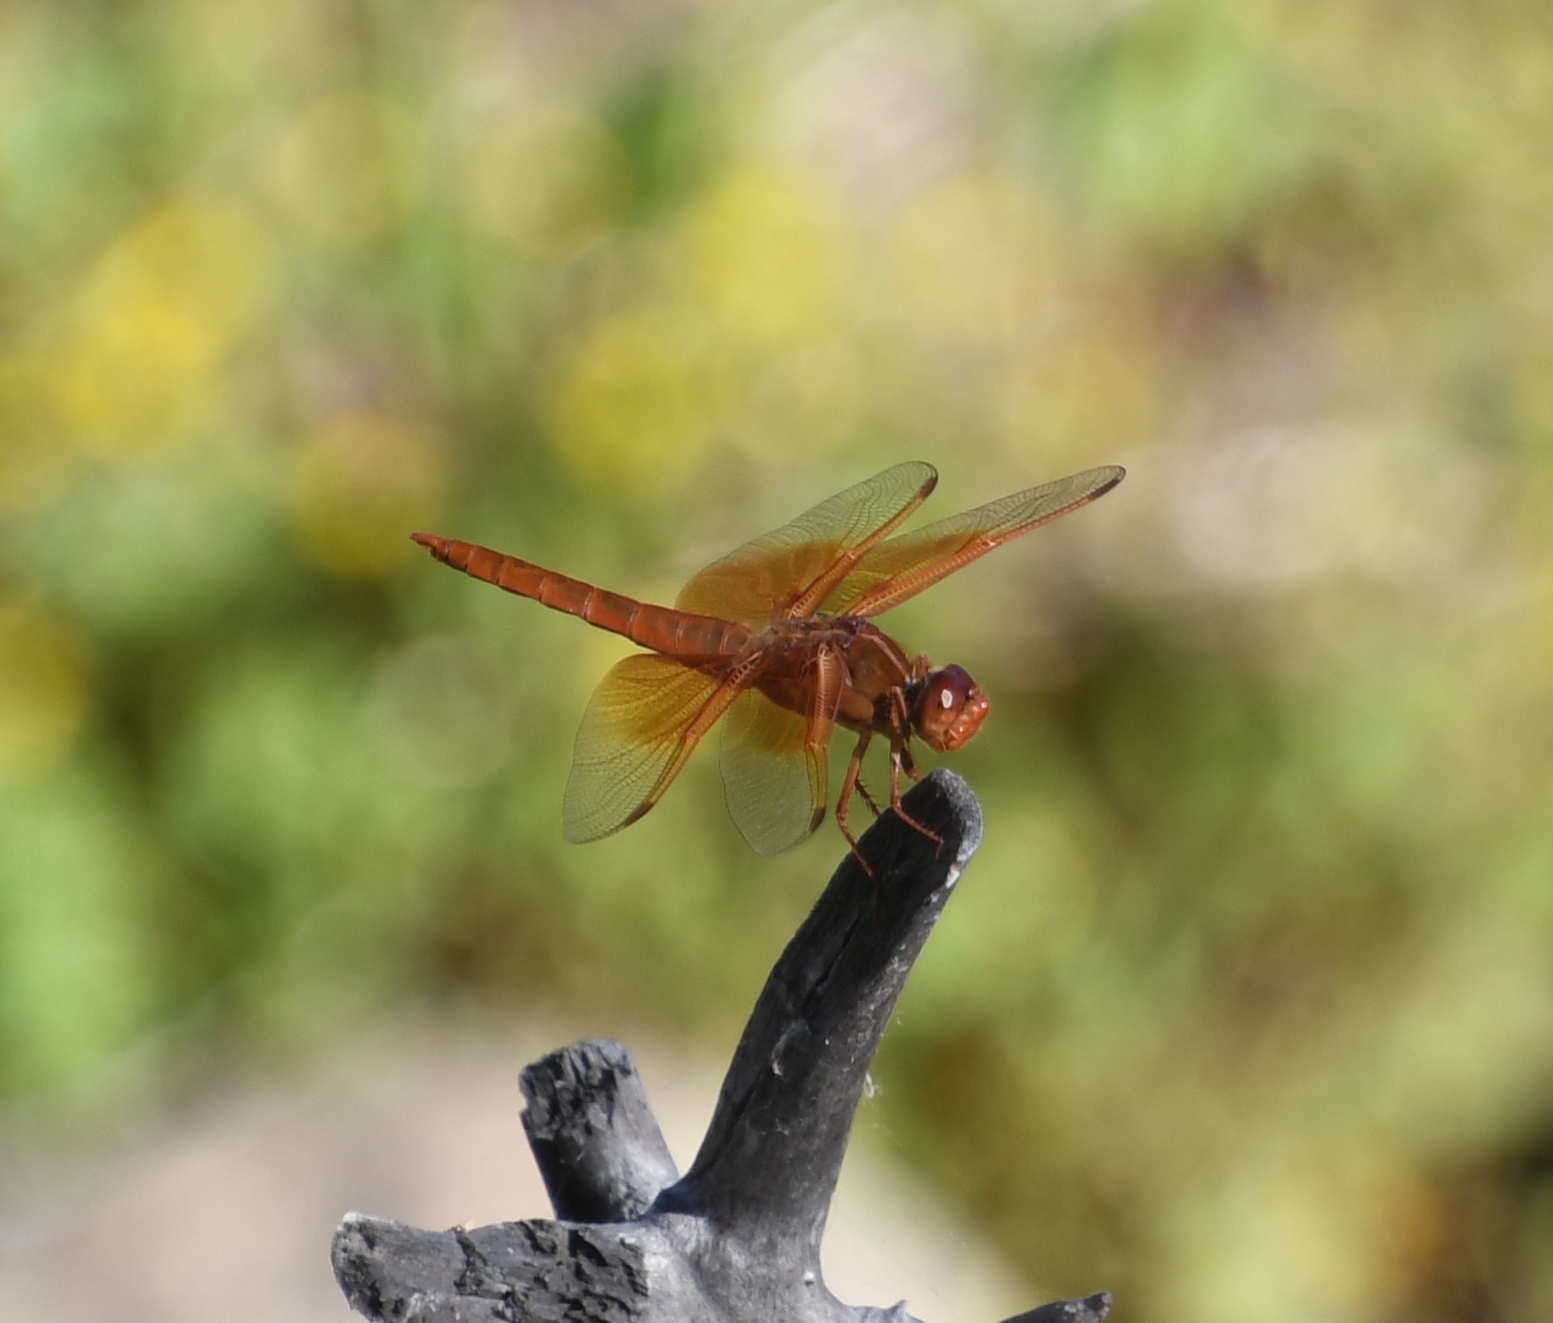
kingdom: Animalia
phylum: Arthropoda
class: Insecta
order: Odonata
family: Libellulidae
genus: Libellula
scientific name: Libellula saturata
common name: Flame skimmer
